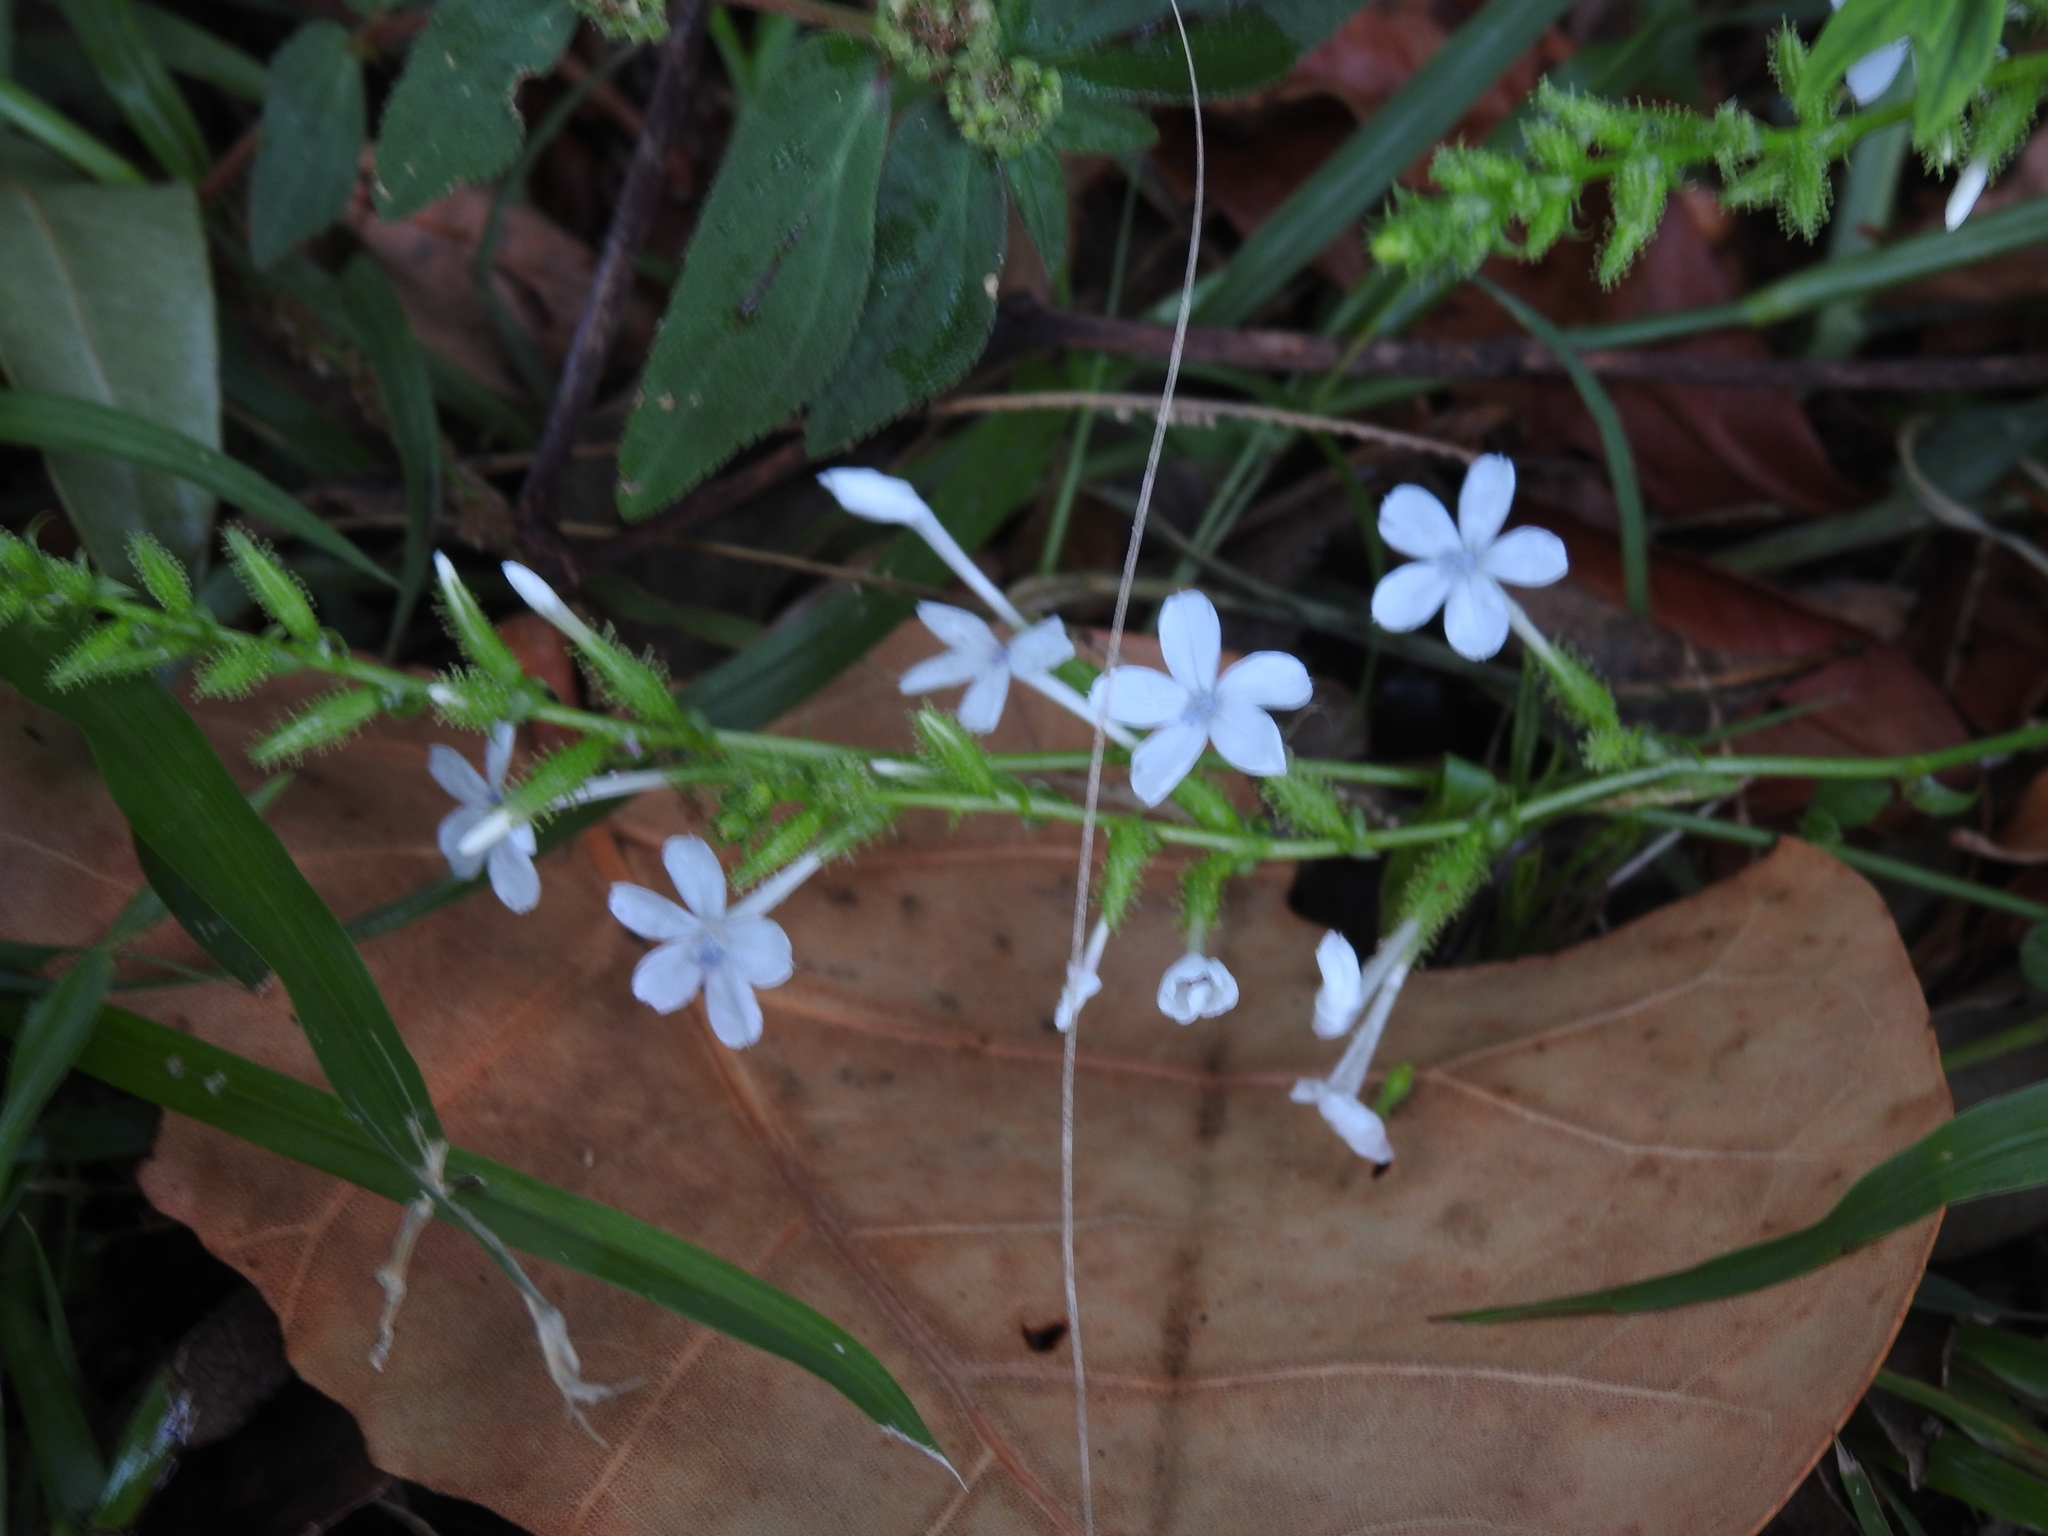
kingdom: Plantae
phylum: Tracheophyta
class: Magnoliopsida
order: Caryophyllales
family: Plumbaginaceae
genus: Plumbago
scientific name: Plumbago zeylanica
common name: Doctorbush
